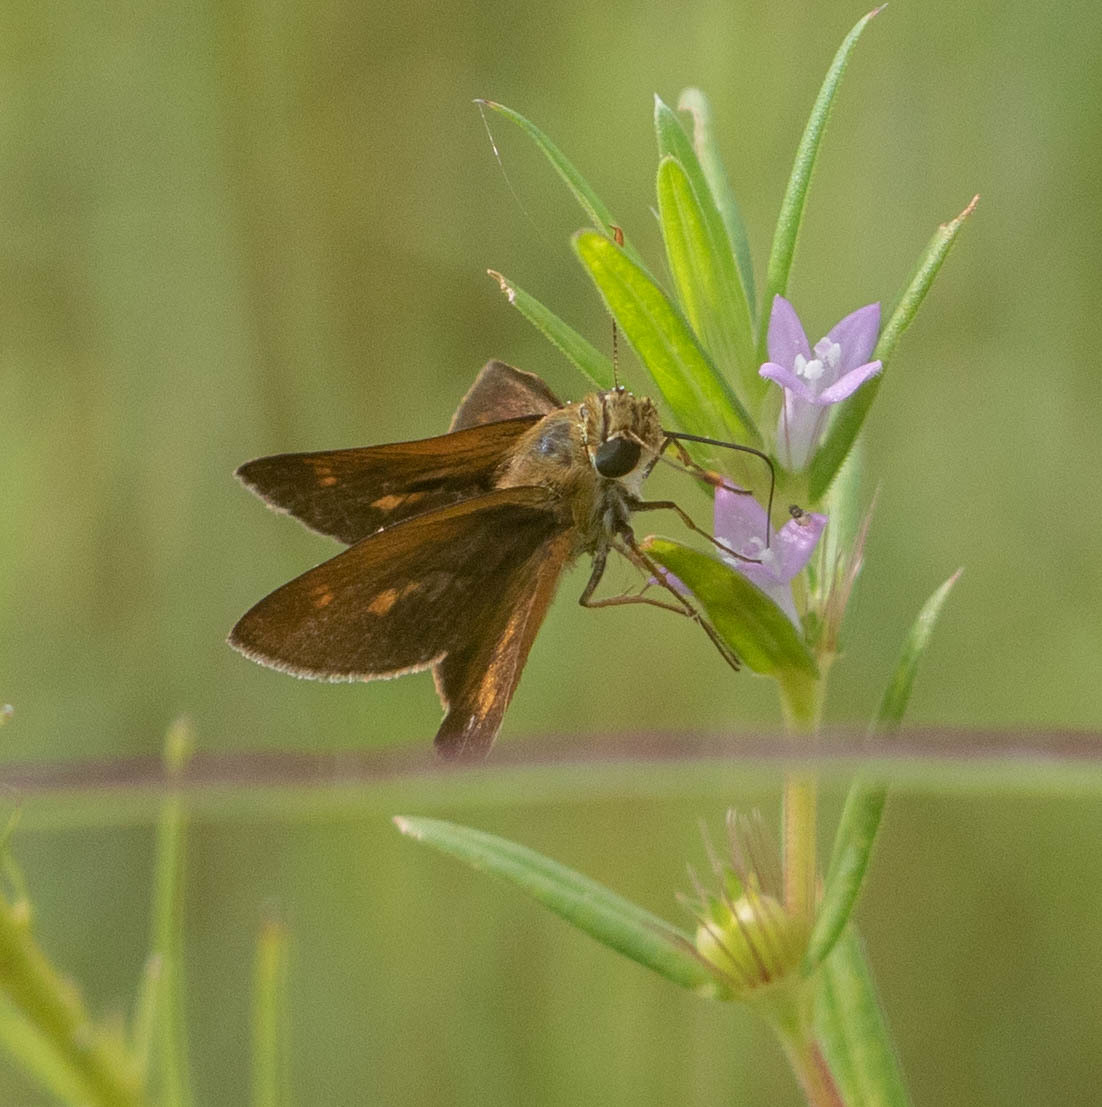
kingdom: Animalia
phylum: Arthropoda
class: Insecta
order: Lepidoptera
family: Hesperiidae
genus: Polites
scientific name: Polites otho
